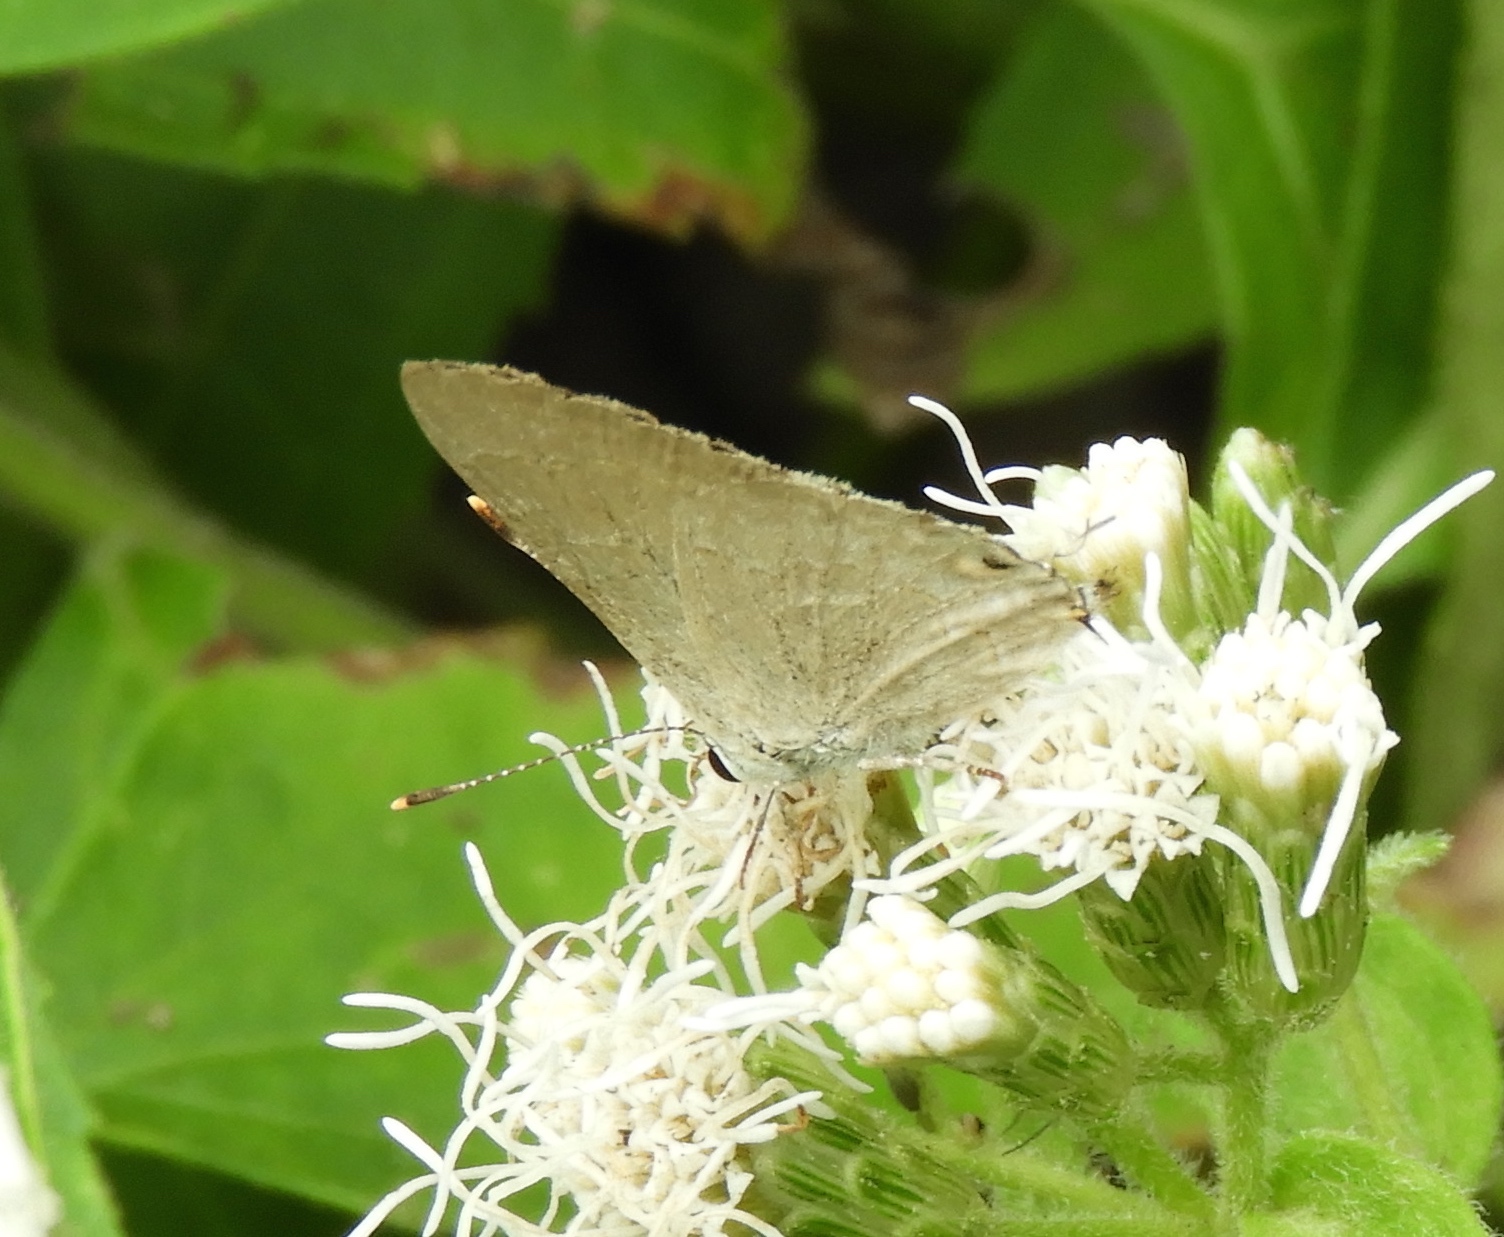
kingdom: Animalia
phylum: Arthropoda
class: Insecta
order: Lepidoptera
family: Lycaenidae
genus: Thecla
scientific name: Thecla rufofusca
